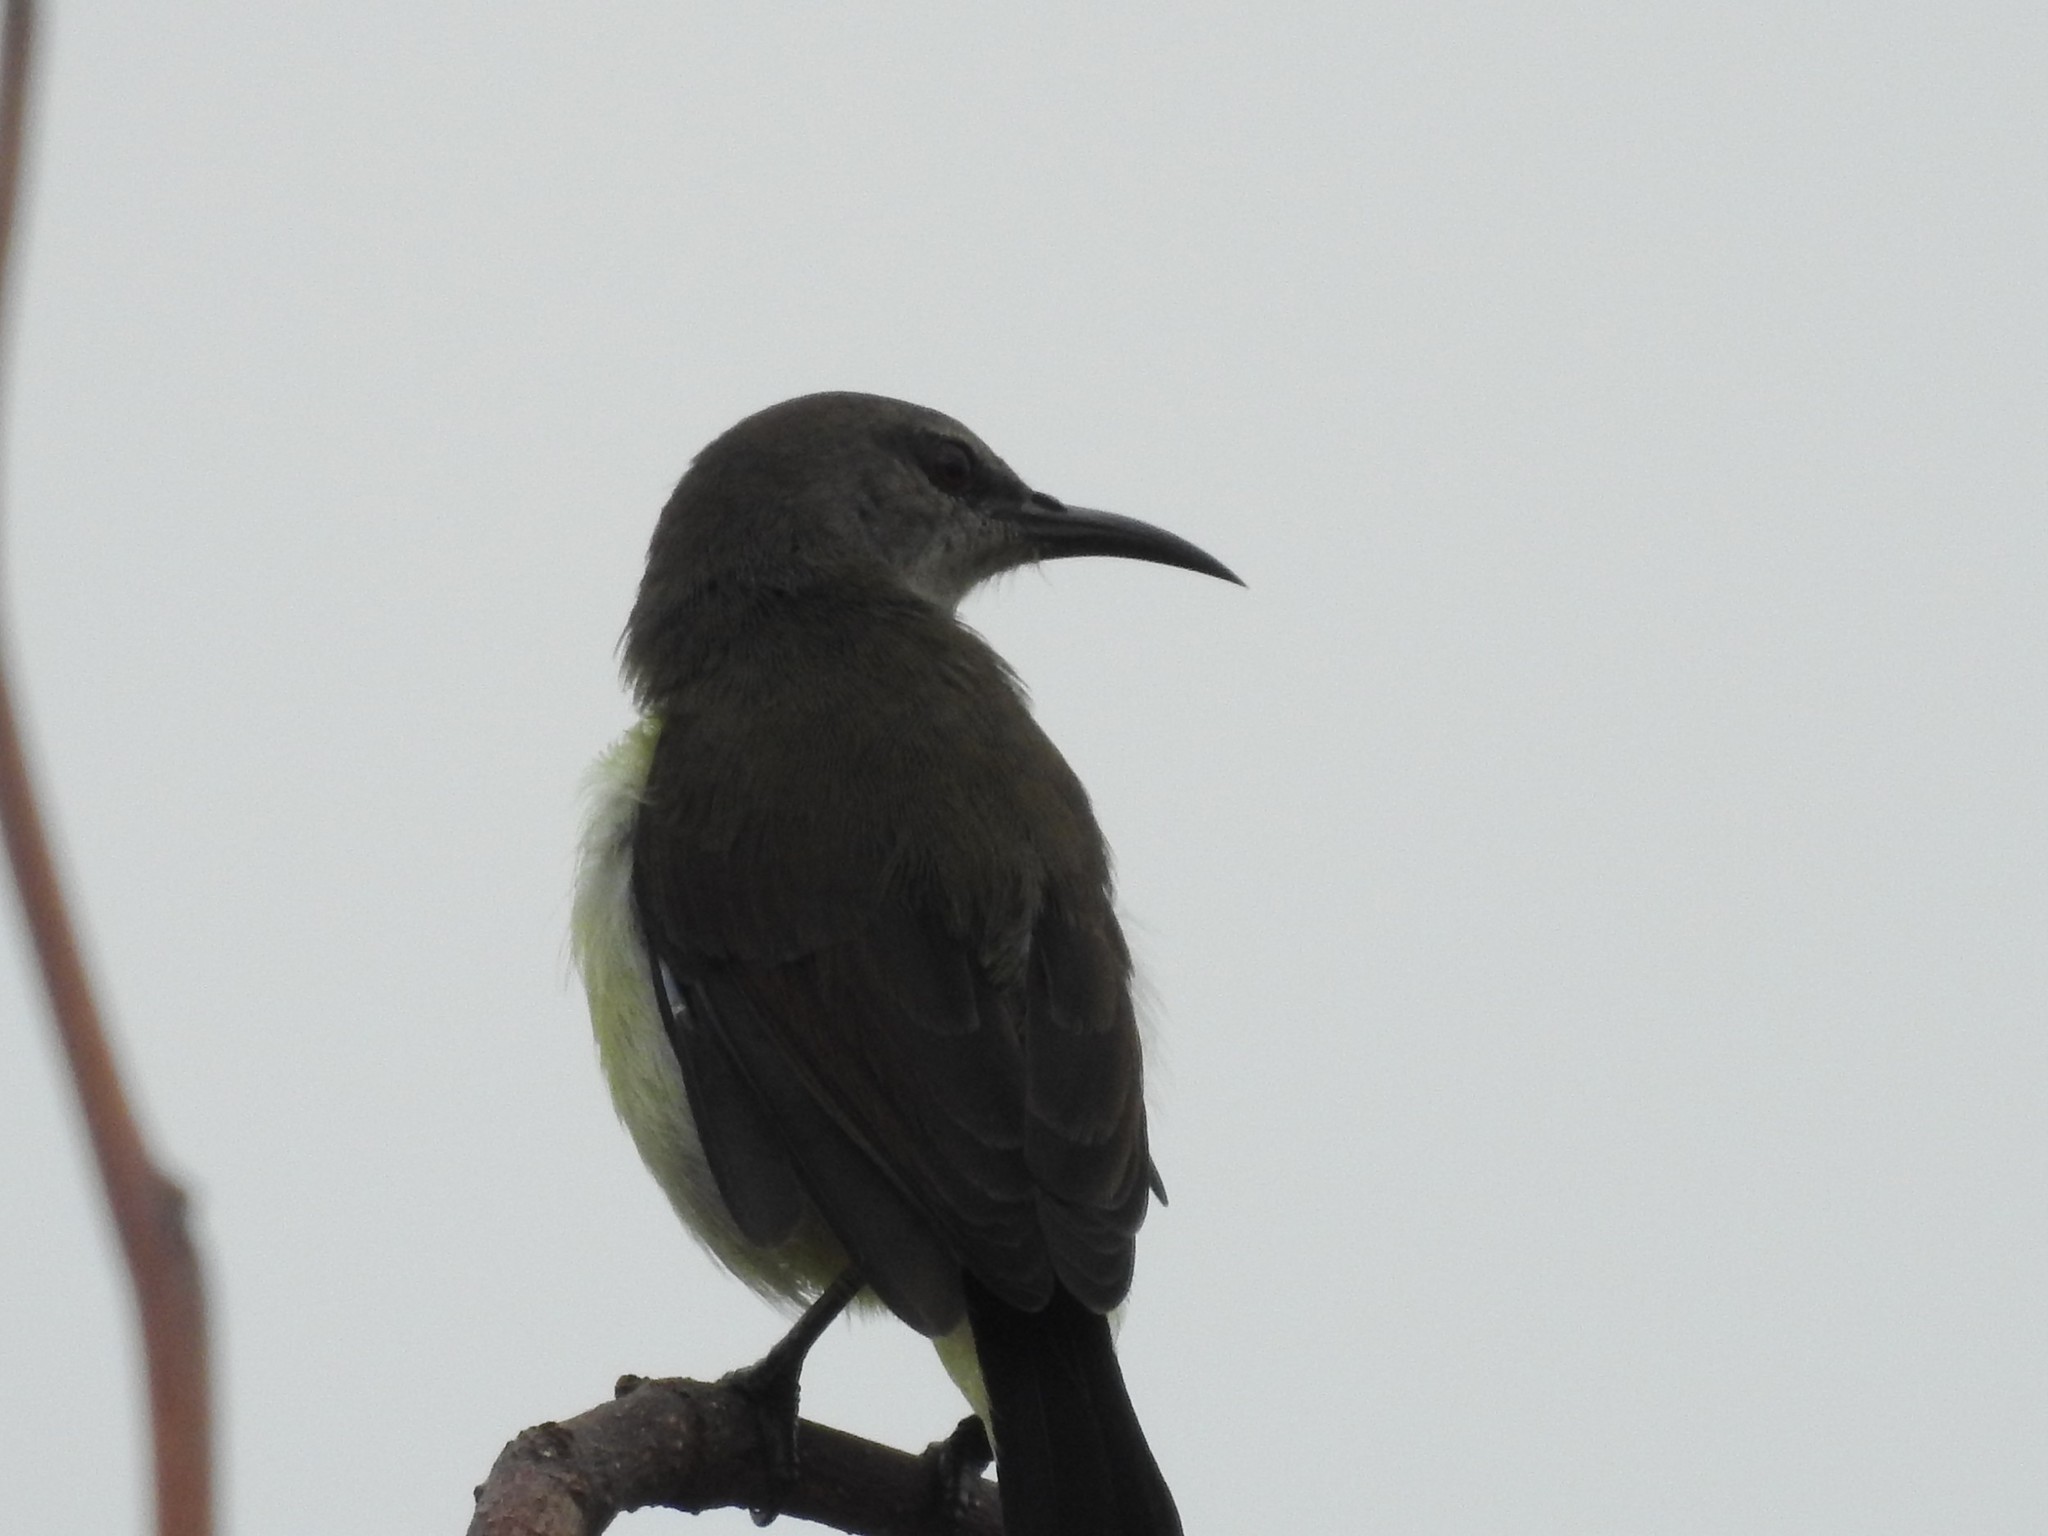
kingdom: Animalia
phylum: Chordata
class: Aves
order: Passeriformes
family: Nectariniidae
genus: Leptocoma
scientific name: Leptocoma zeylonica
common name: Purple-rumped sunbird
